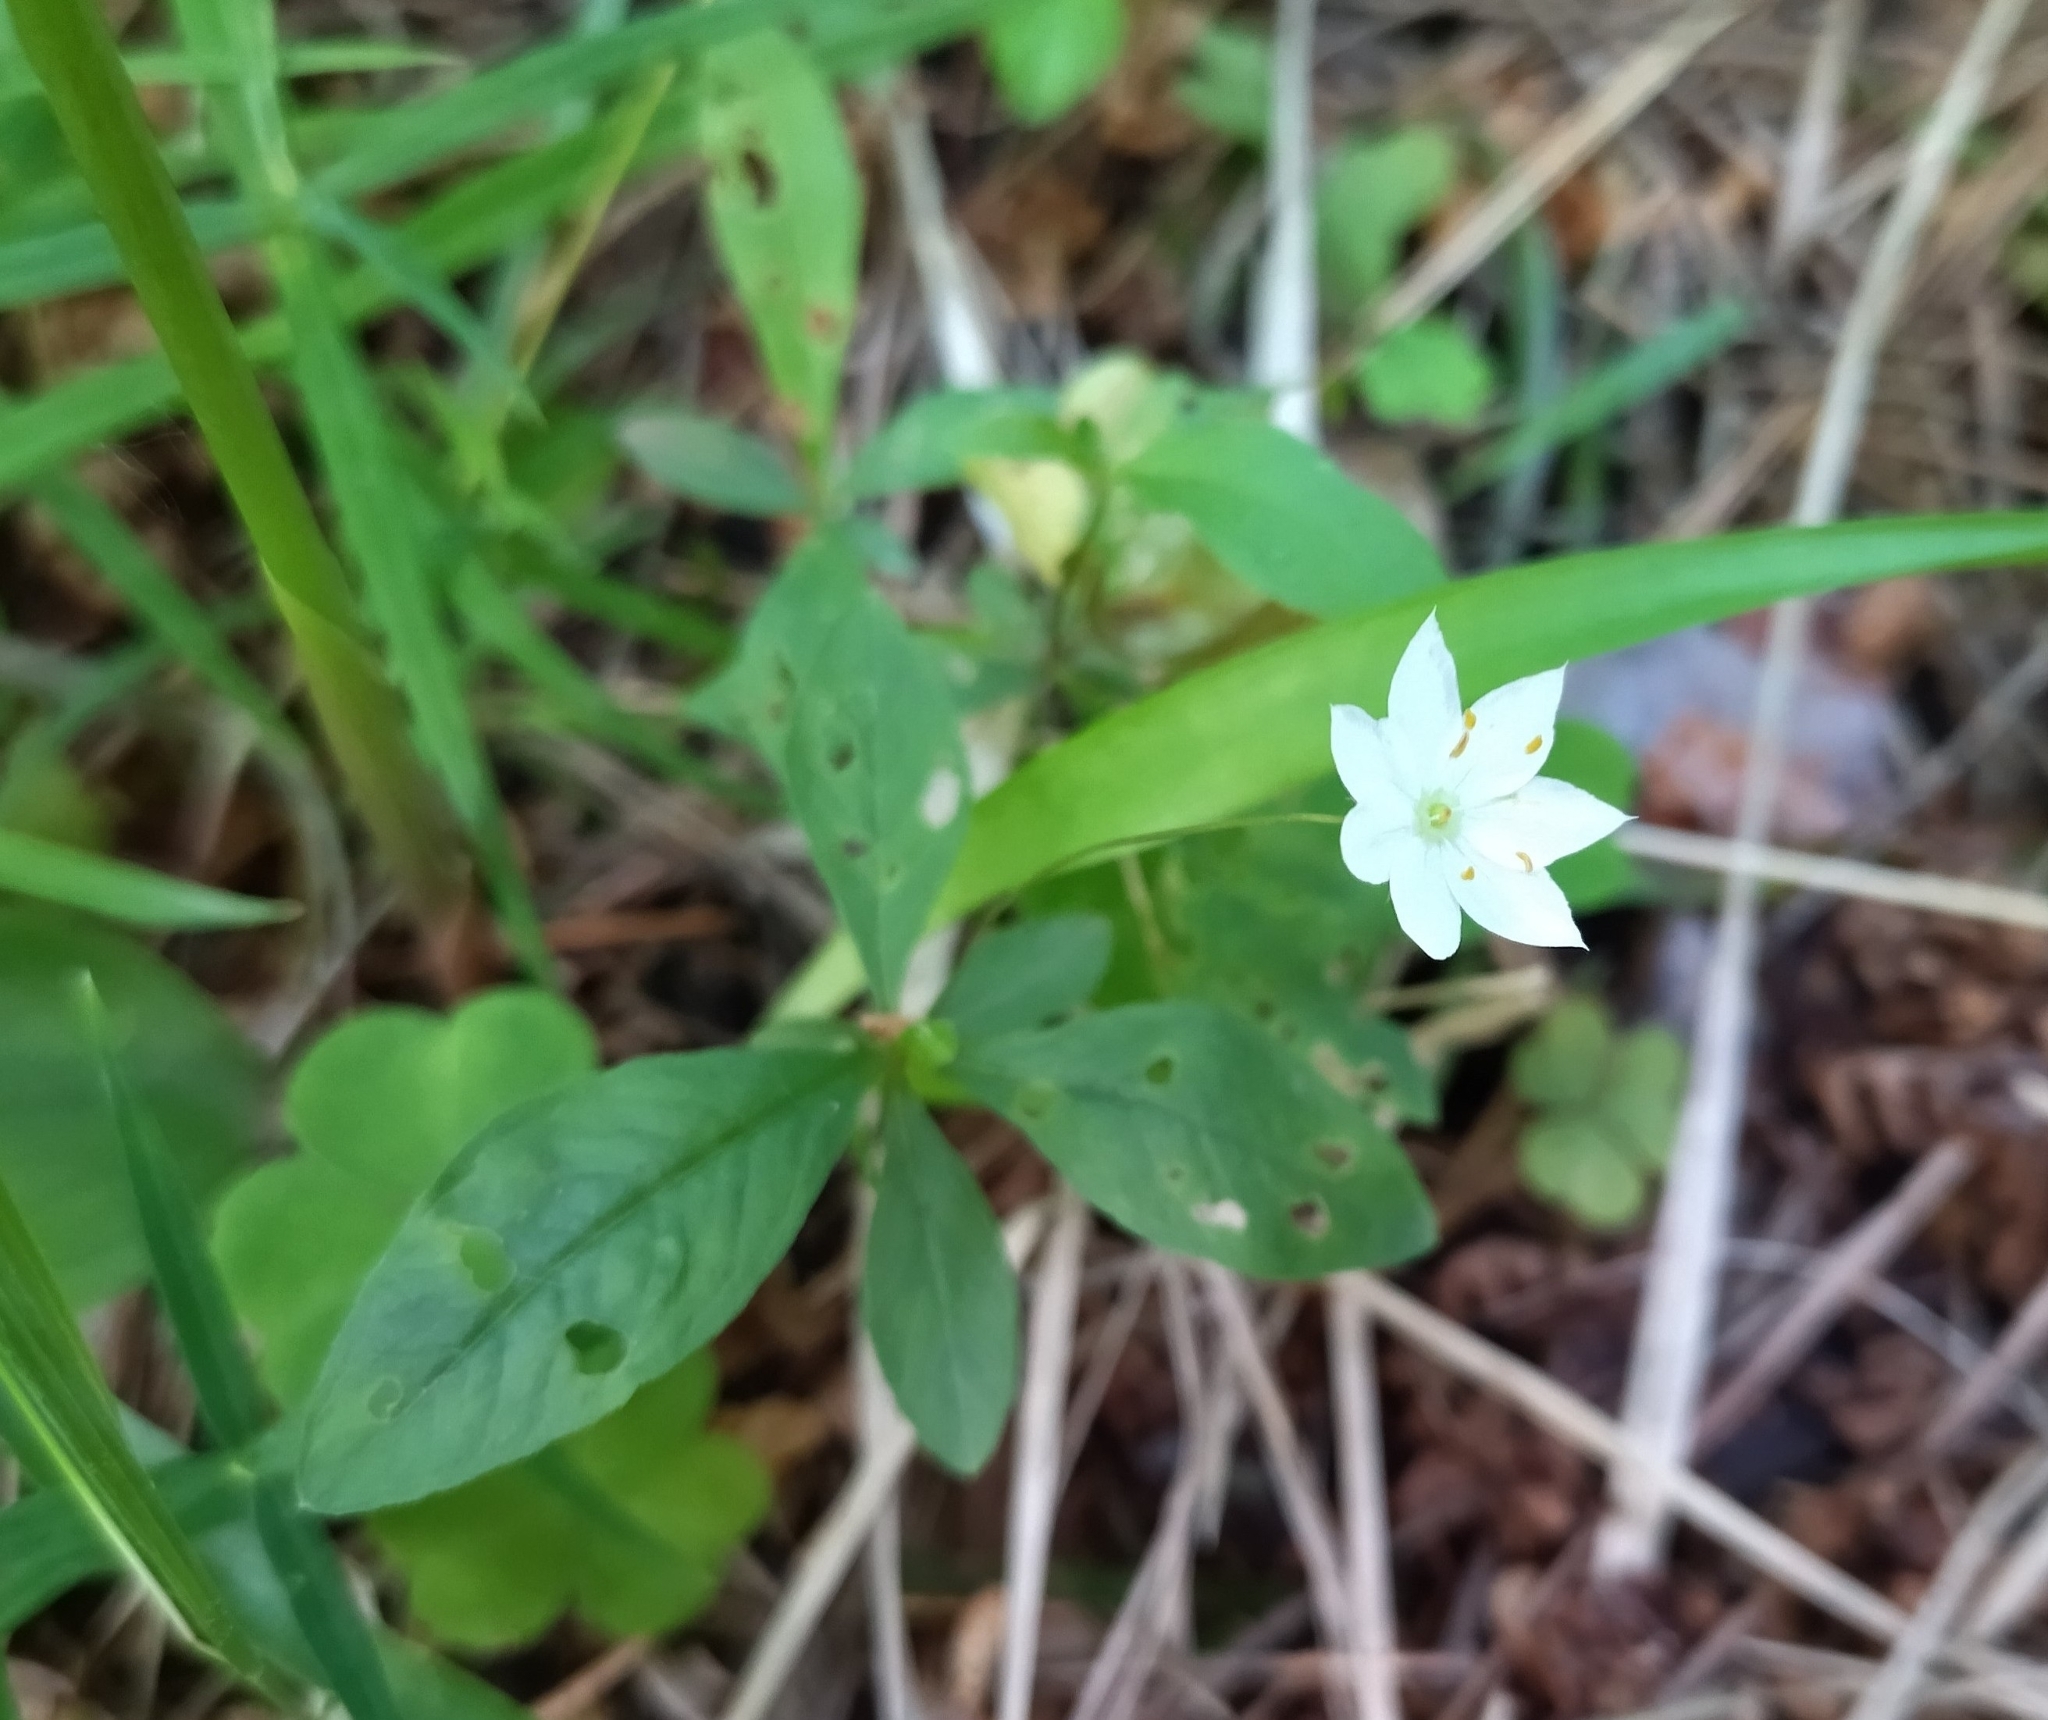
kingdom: Plantae
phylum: Tracheophyta
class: Magnoliopsida
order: Ericales
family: Primulaceae
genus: Lysimachia
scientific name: Lysimachia europaea
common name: Arctic starflower
